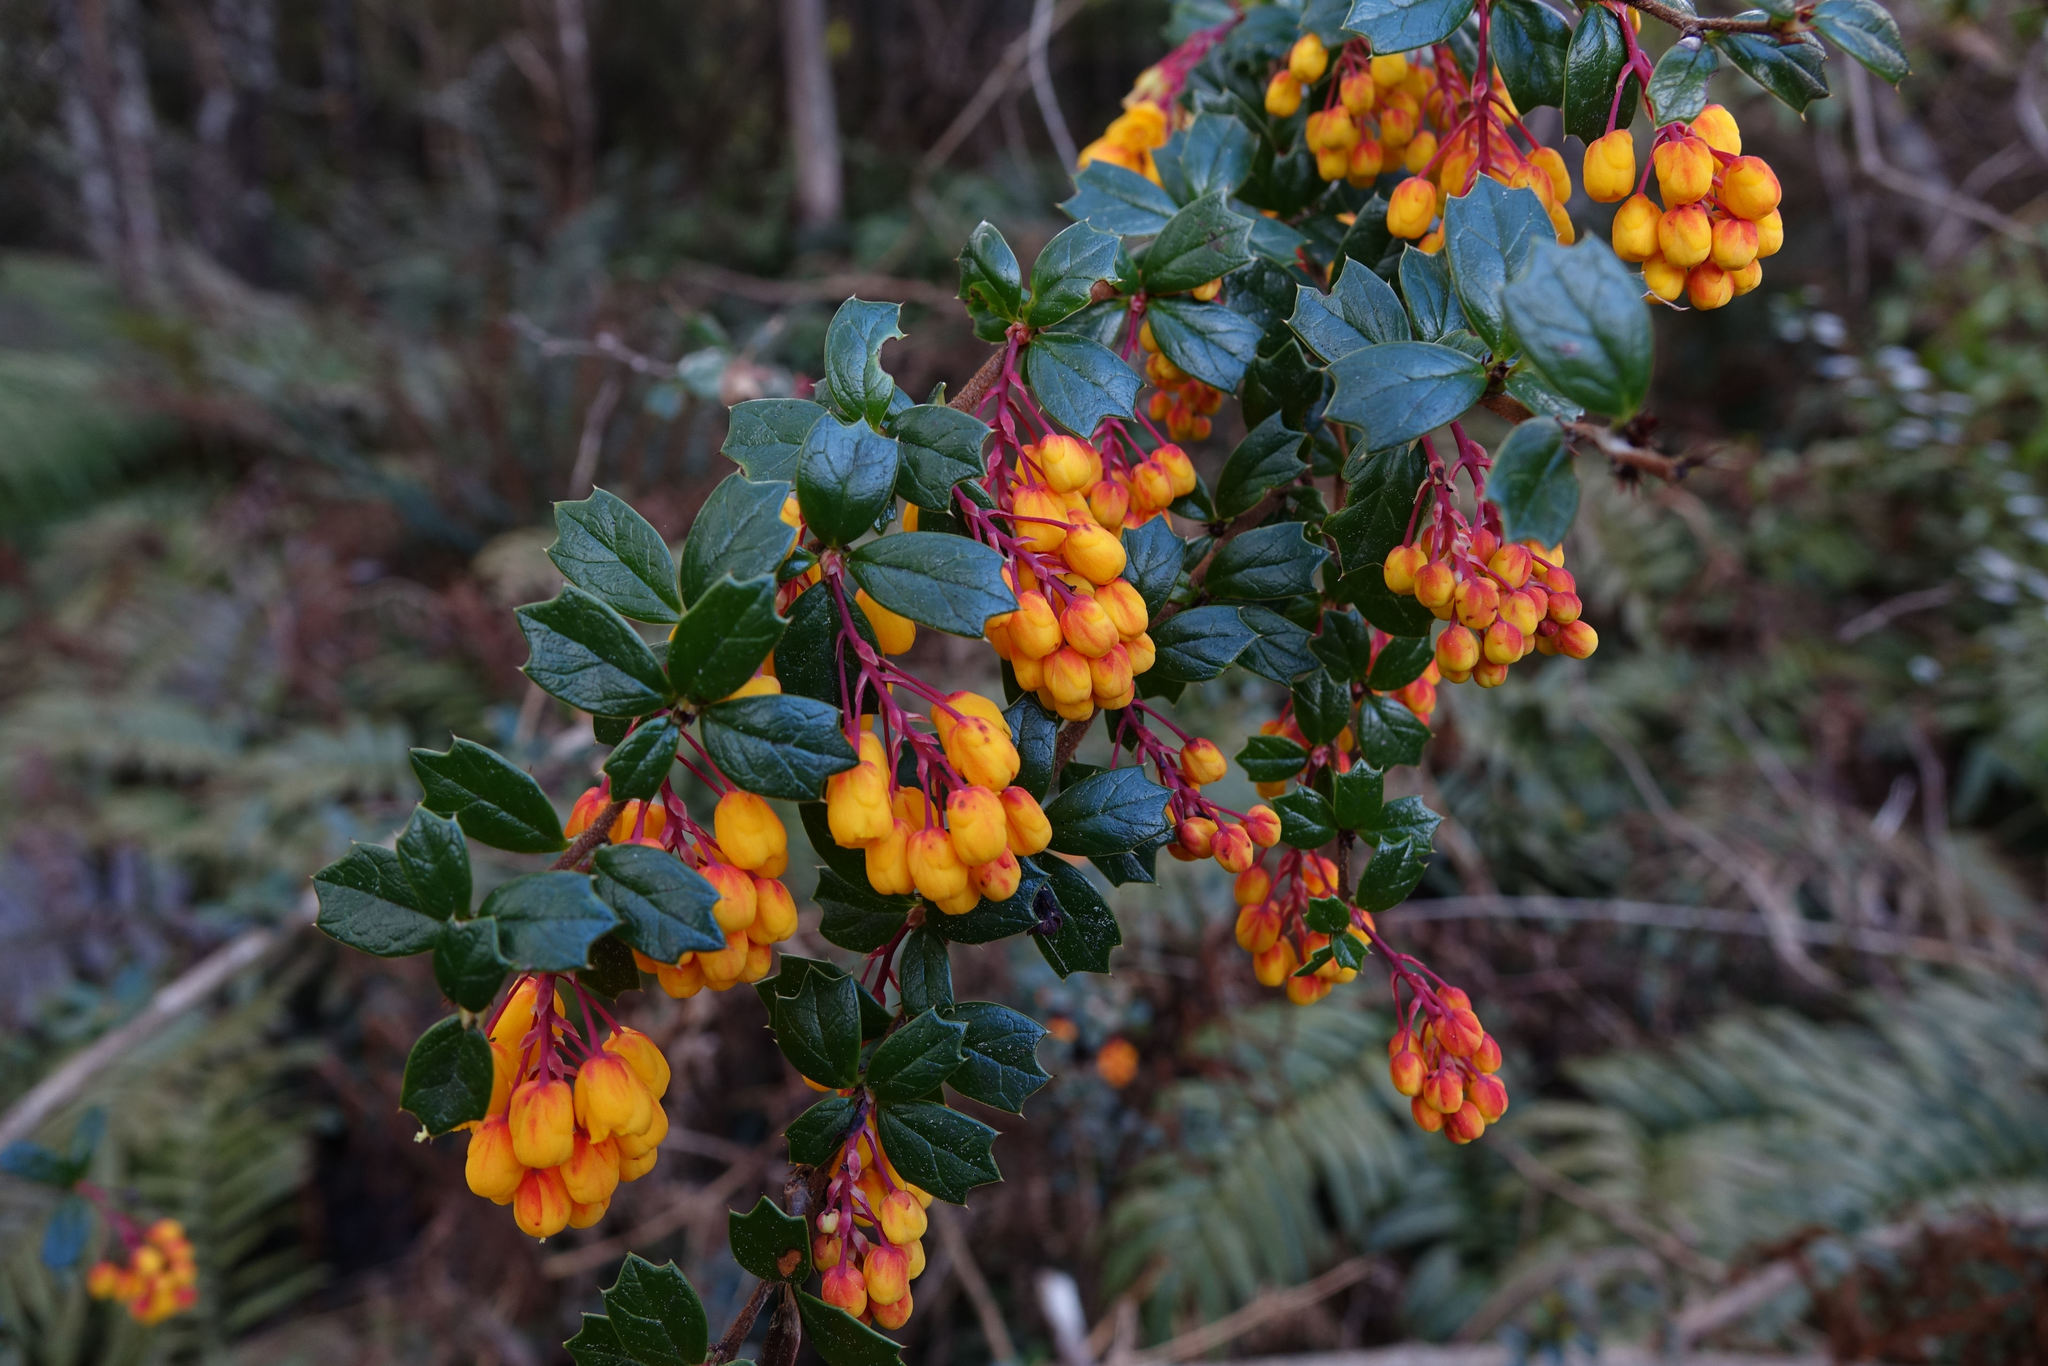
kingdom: Plantae
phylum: Tracheophyta
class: Magnoliopsida
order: Ranunculales
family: Berberidaceae
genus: Berberis
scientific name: Berberis darwinii
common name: Darwin's barberry
